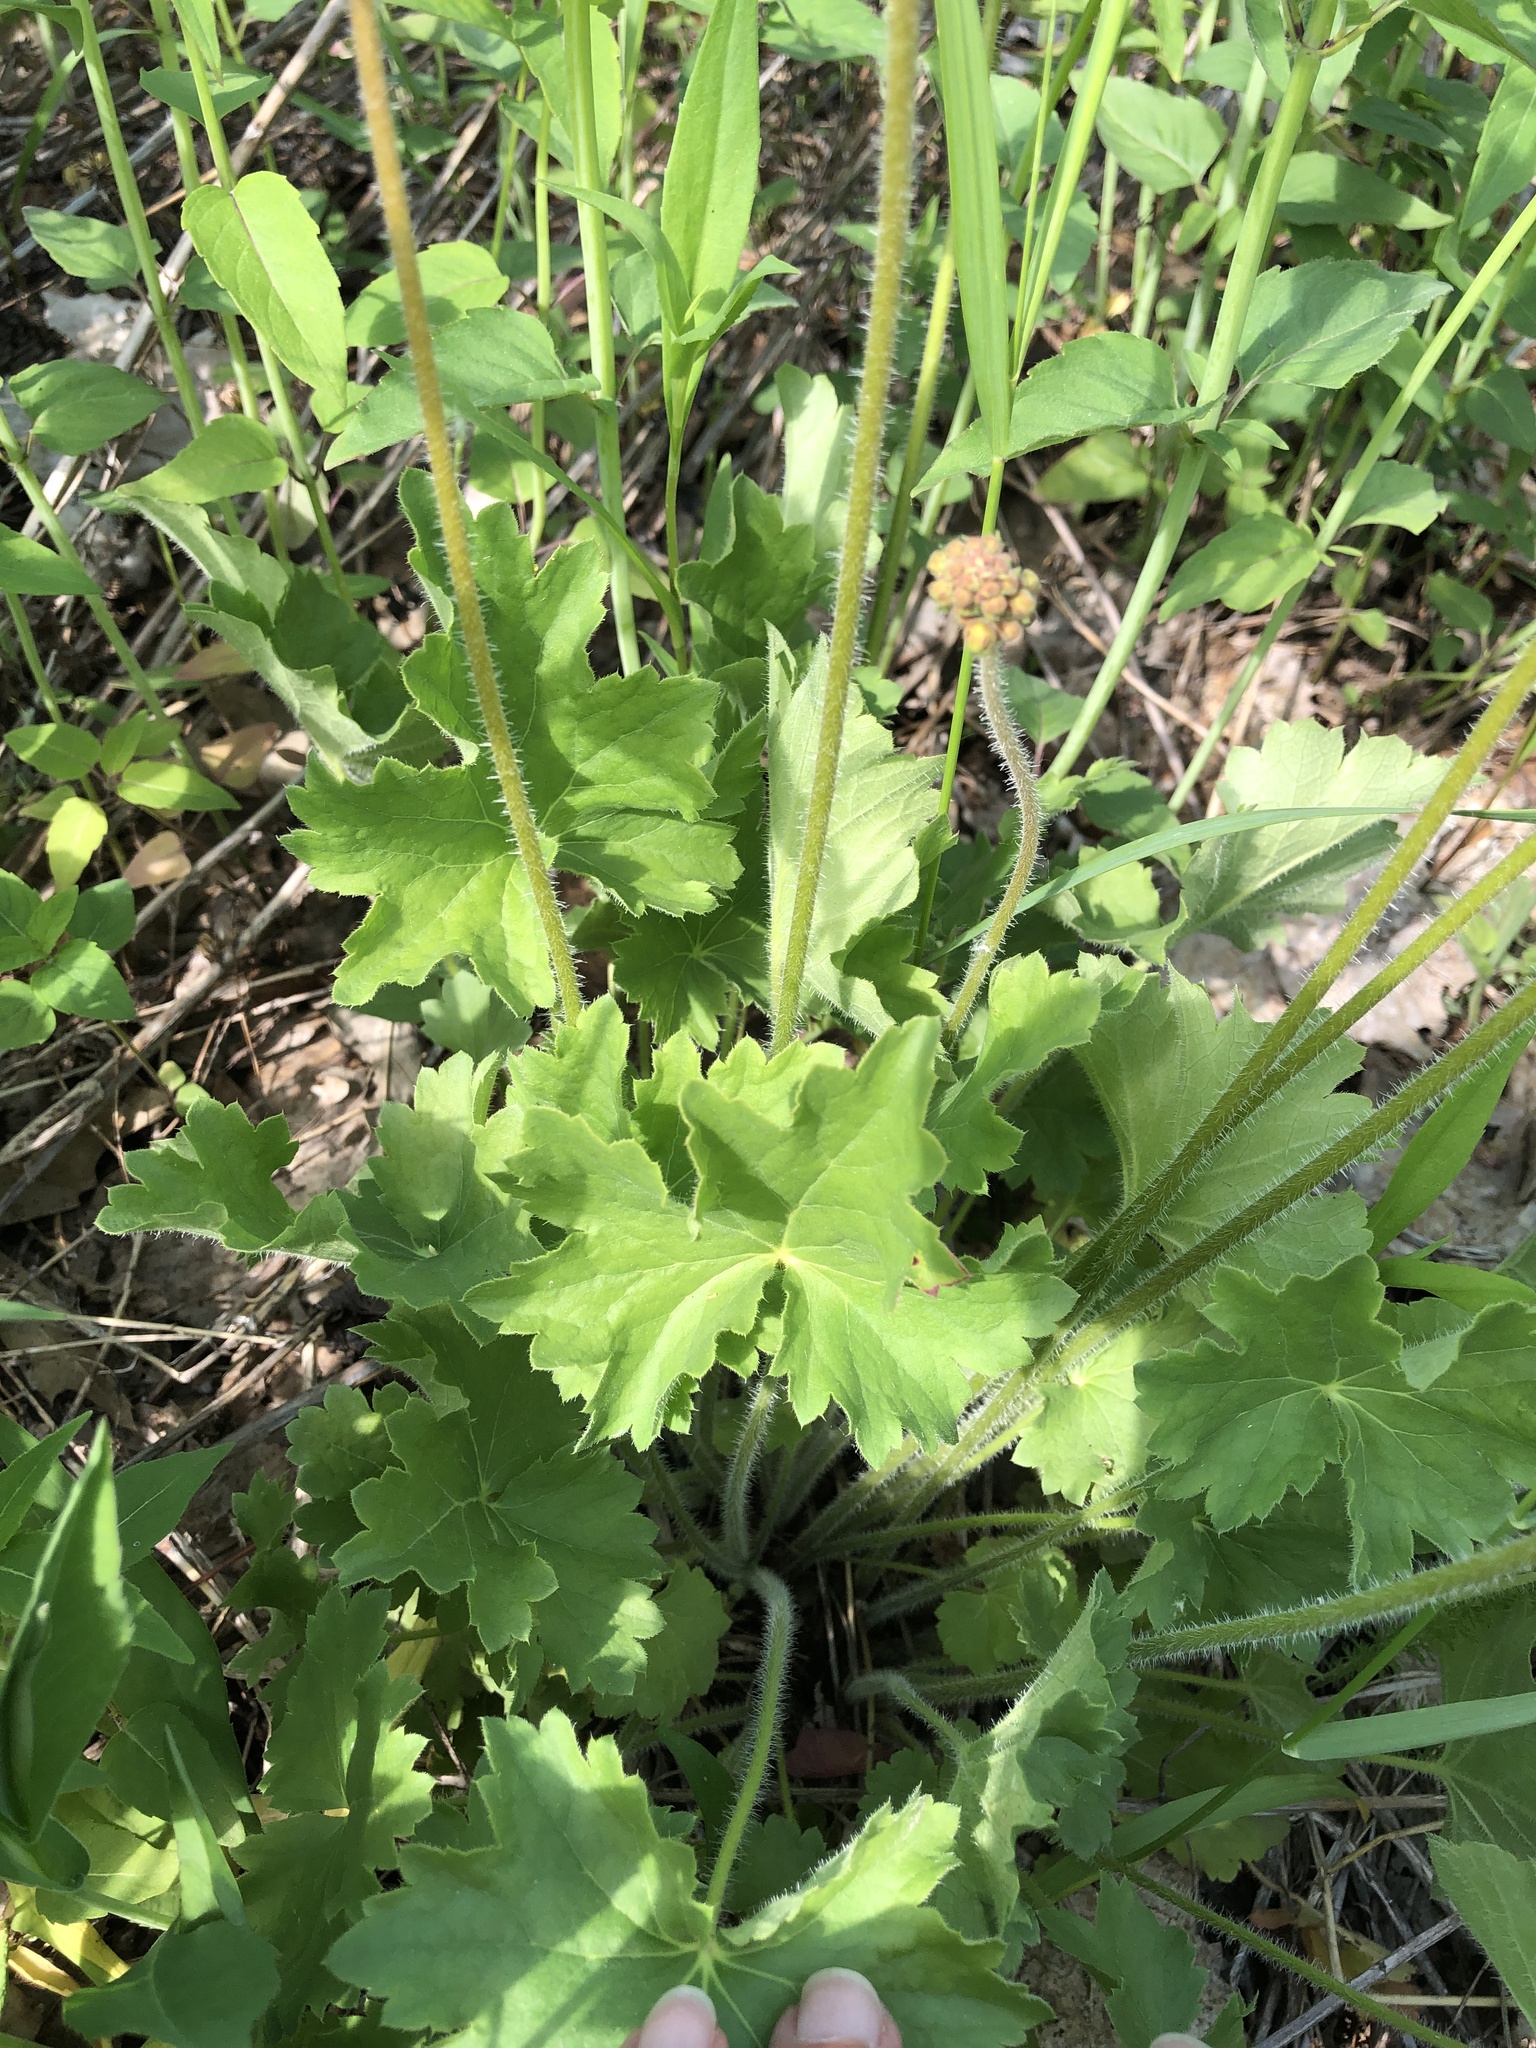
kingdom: Plantae
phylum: Tracheophyta
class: Magnoliopsida
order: Saxifragales
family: Saxifragaceae
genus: Heuchera
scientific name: Heuchera richardsonii
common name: Richardson's alumroot
